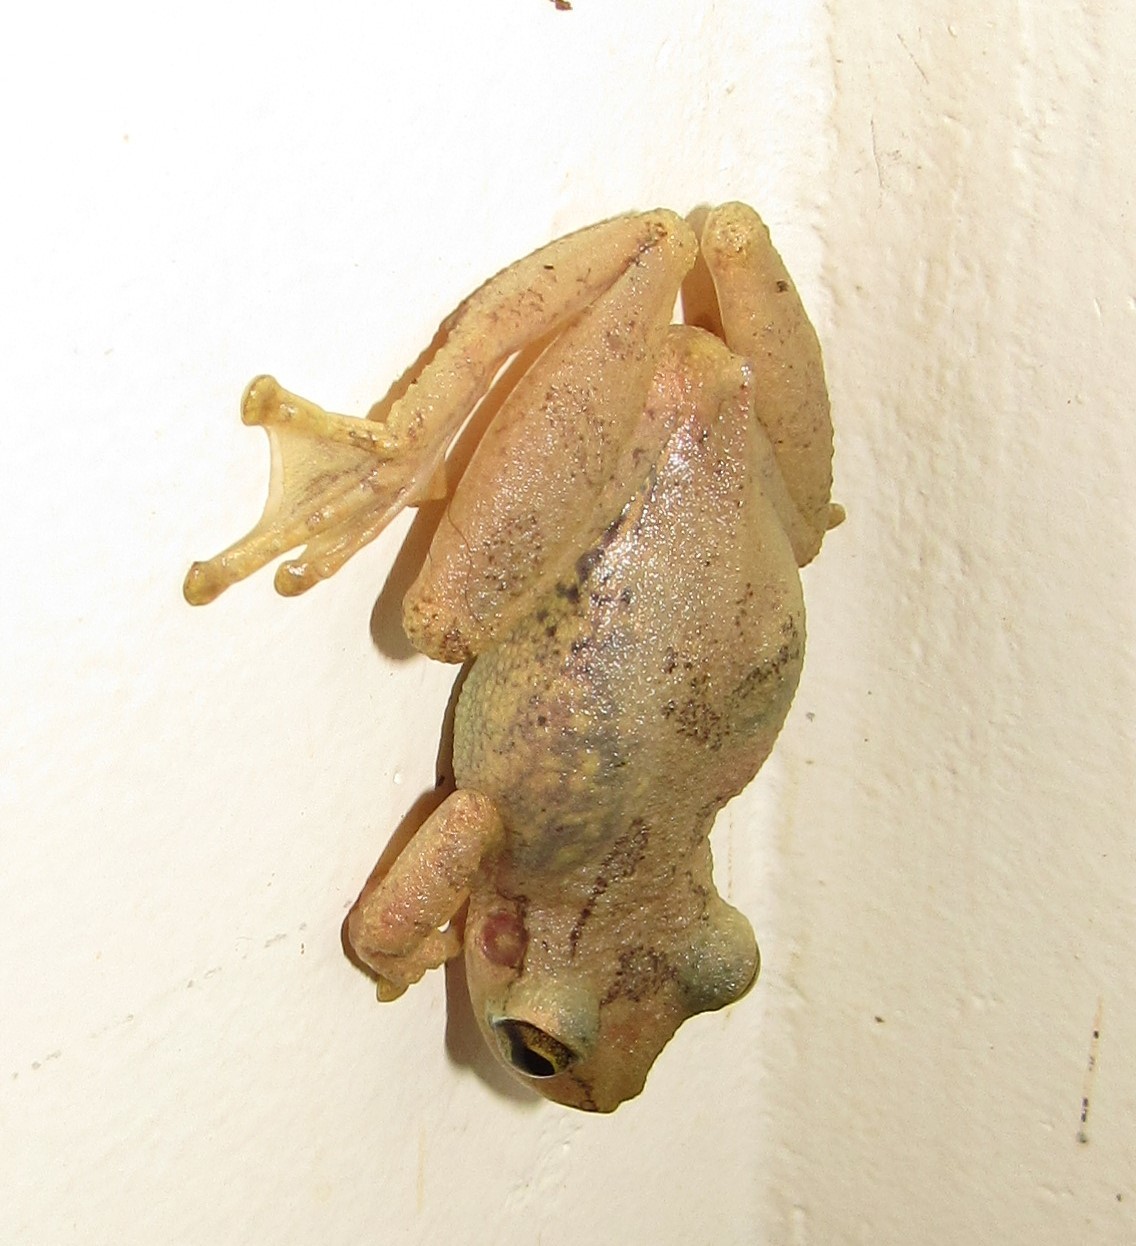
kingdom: Animalia
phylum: Chordata
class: Amphibia
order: Anura
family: Hylidae
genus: Scinax
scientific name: Scinax perereca
